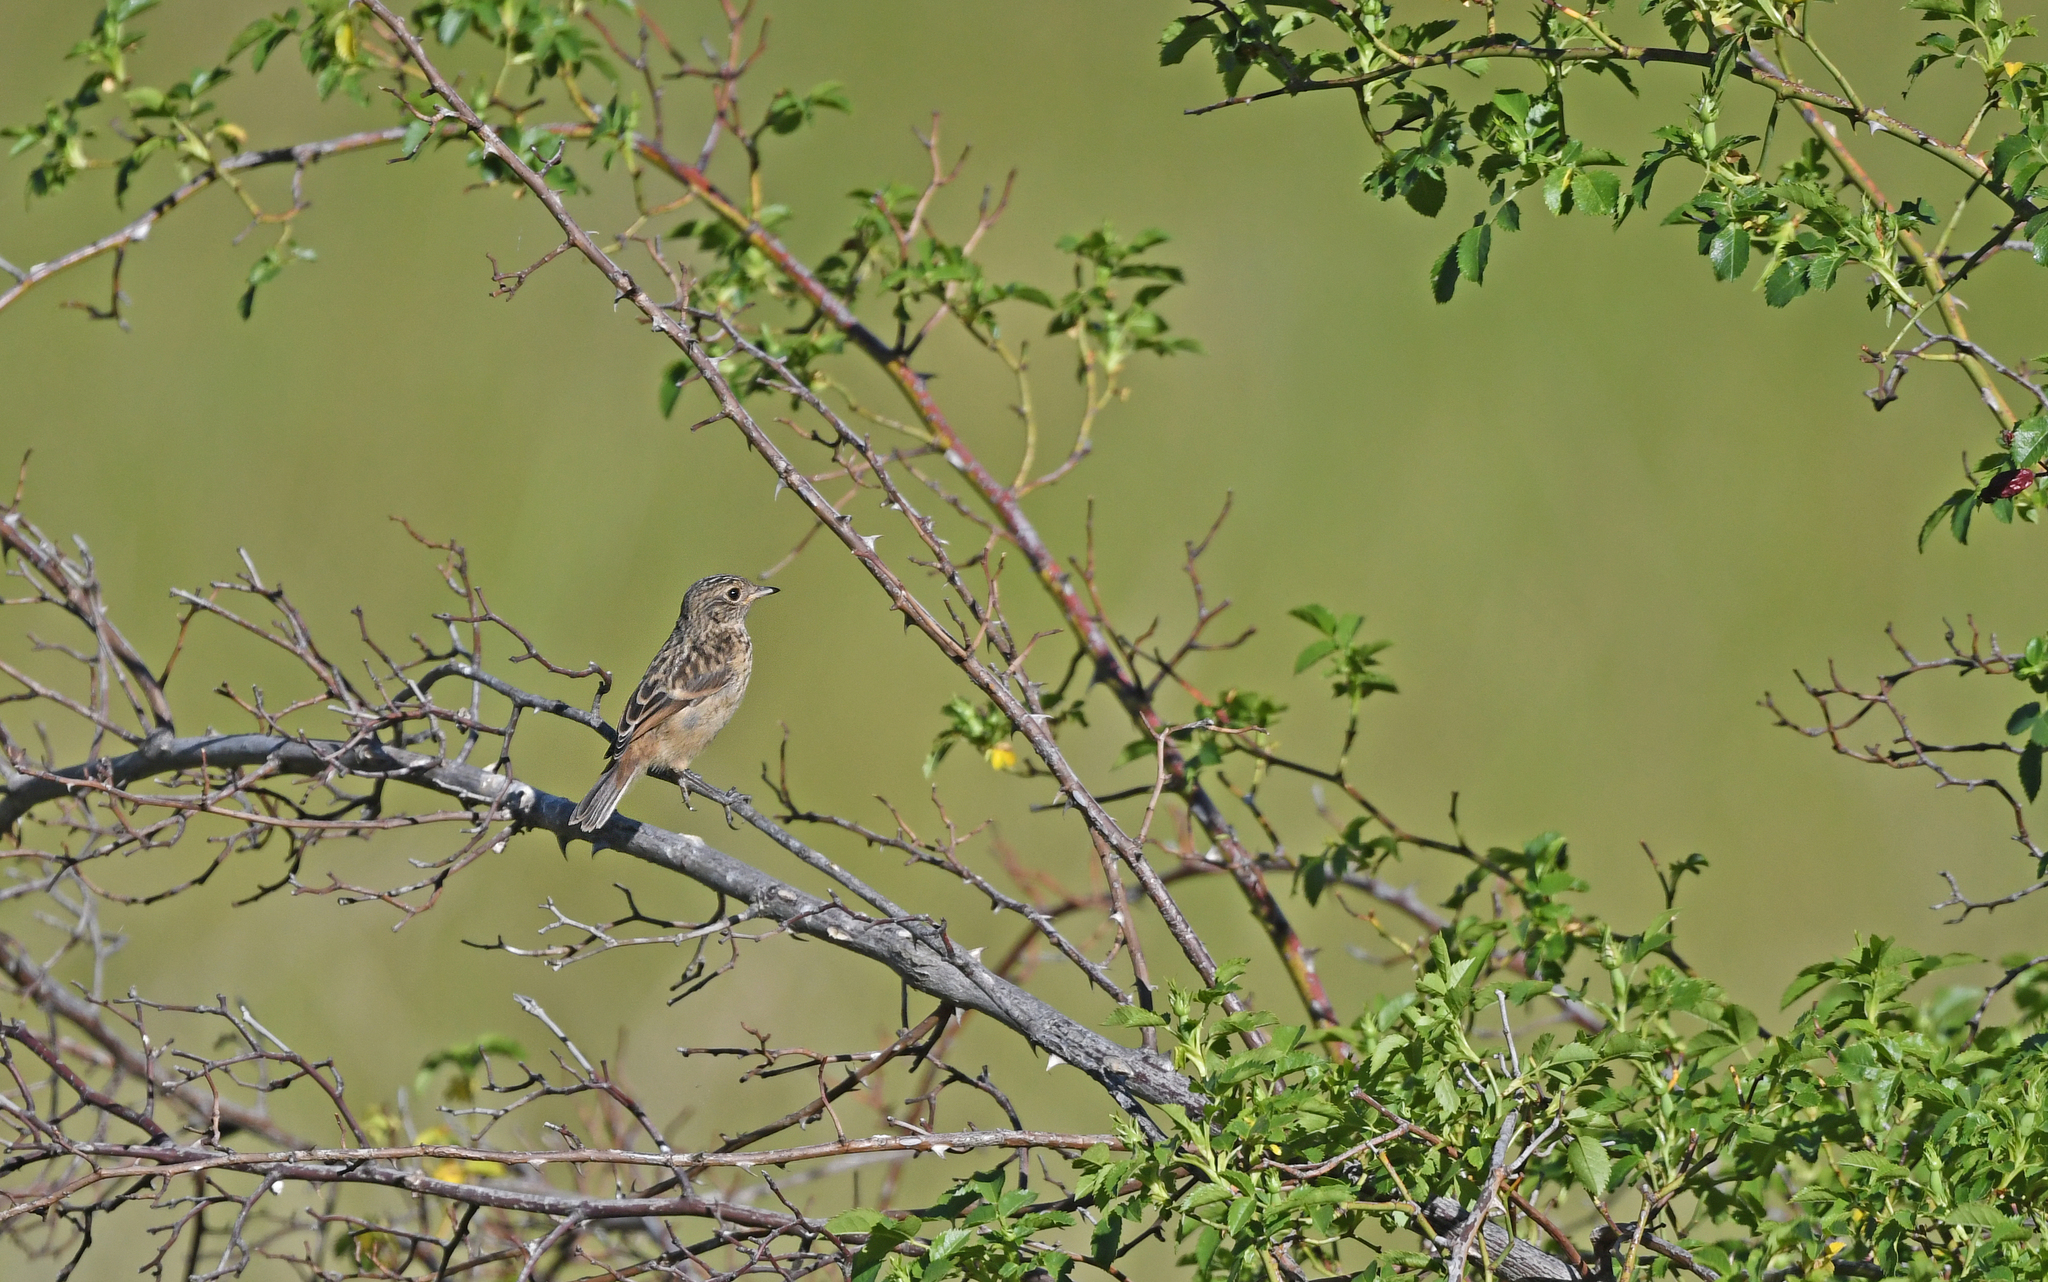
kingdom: Animalia
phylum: Chordata
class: Aves
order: Passeriformes
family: Muscicapidae
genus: Saxicola
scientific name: Saxicola rubicola
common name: European stonechat
